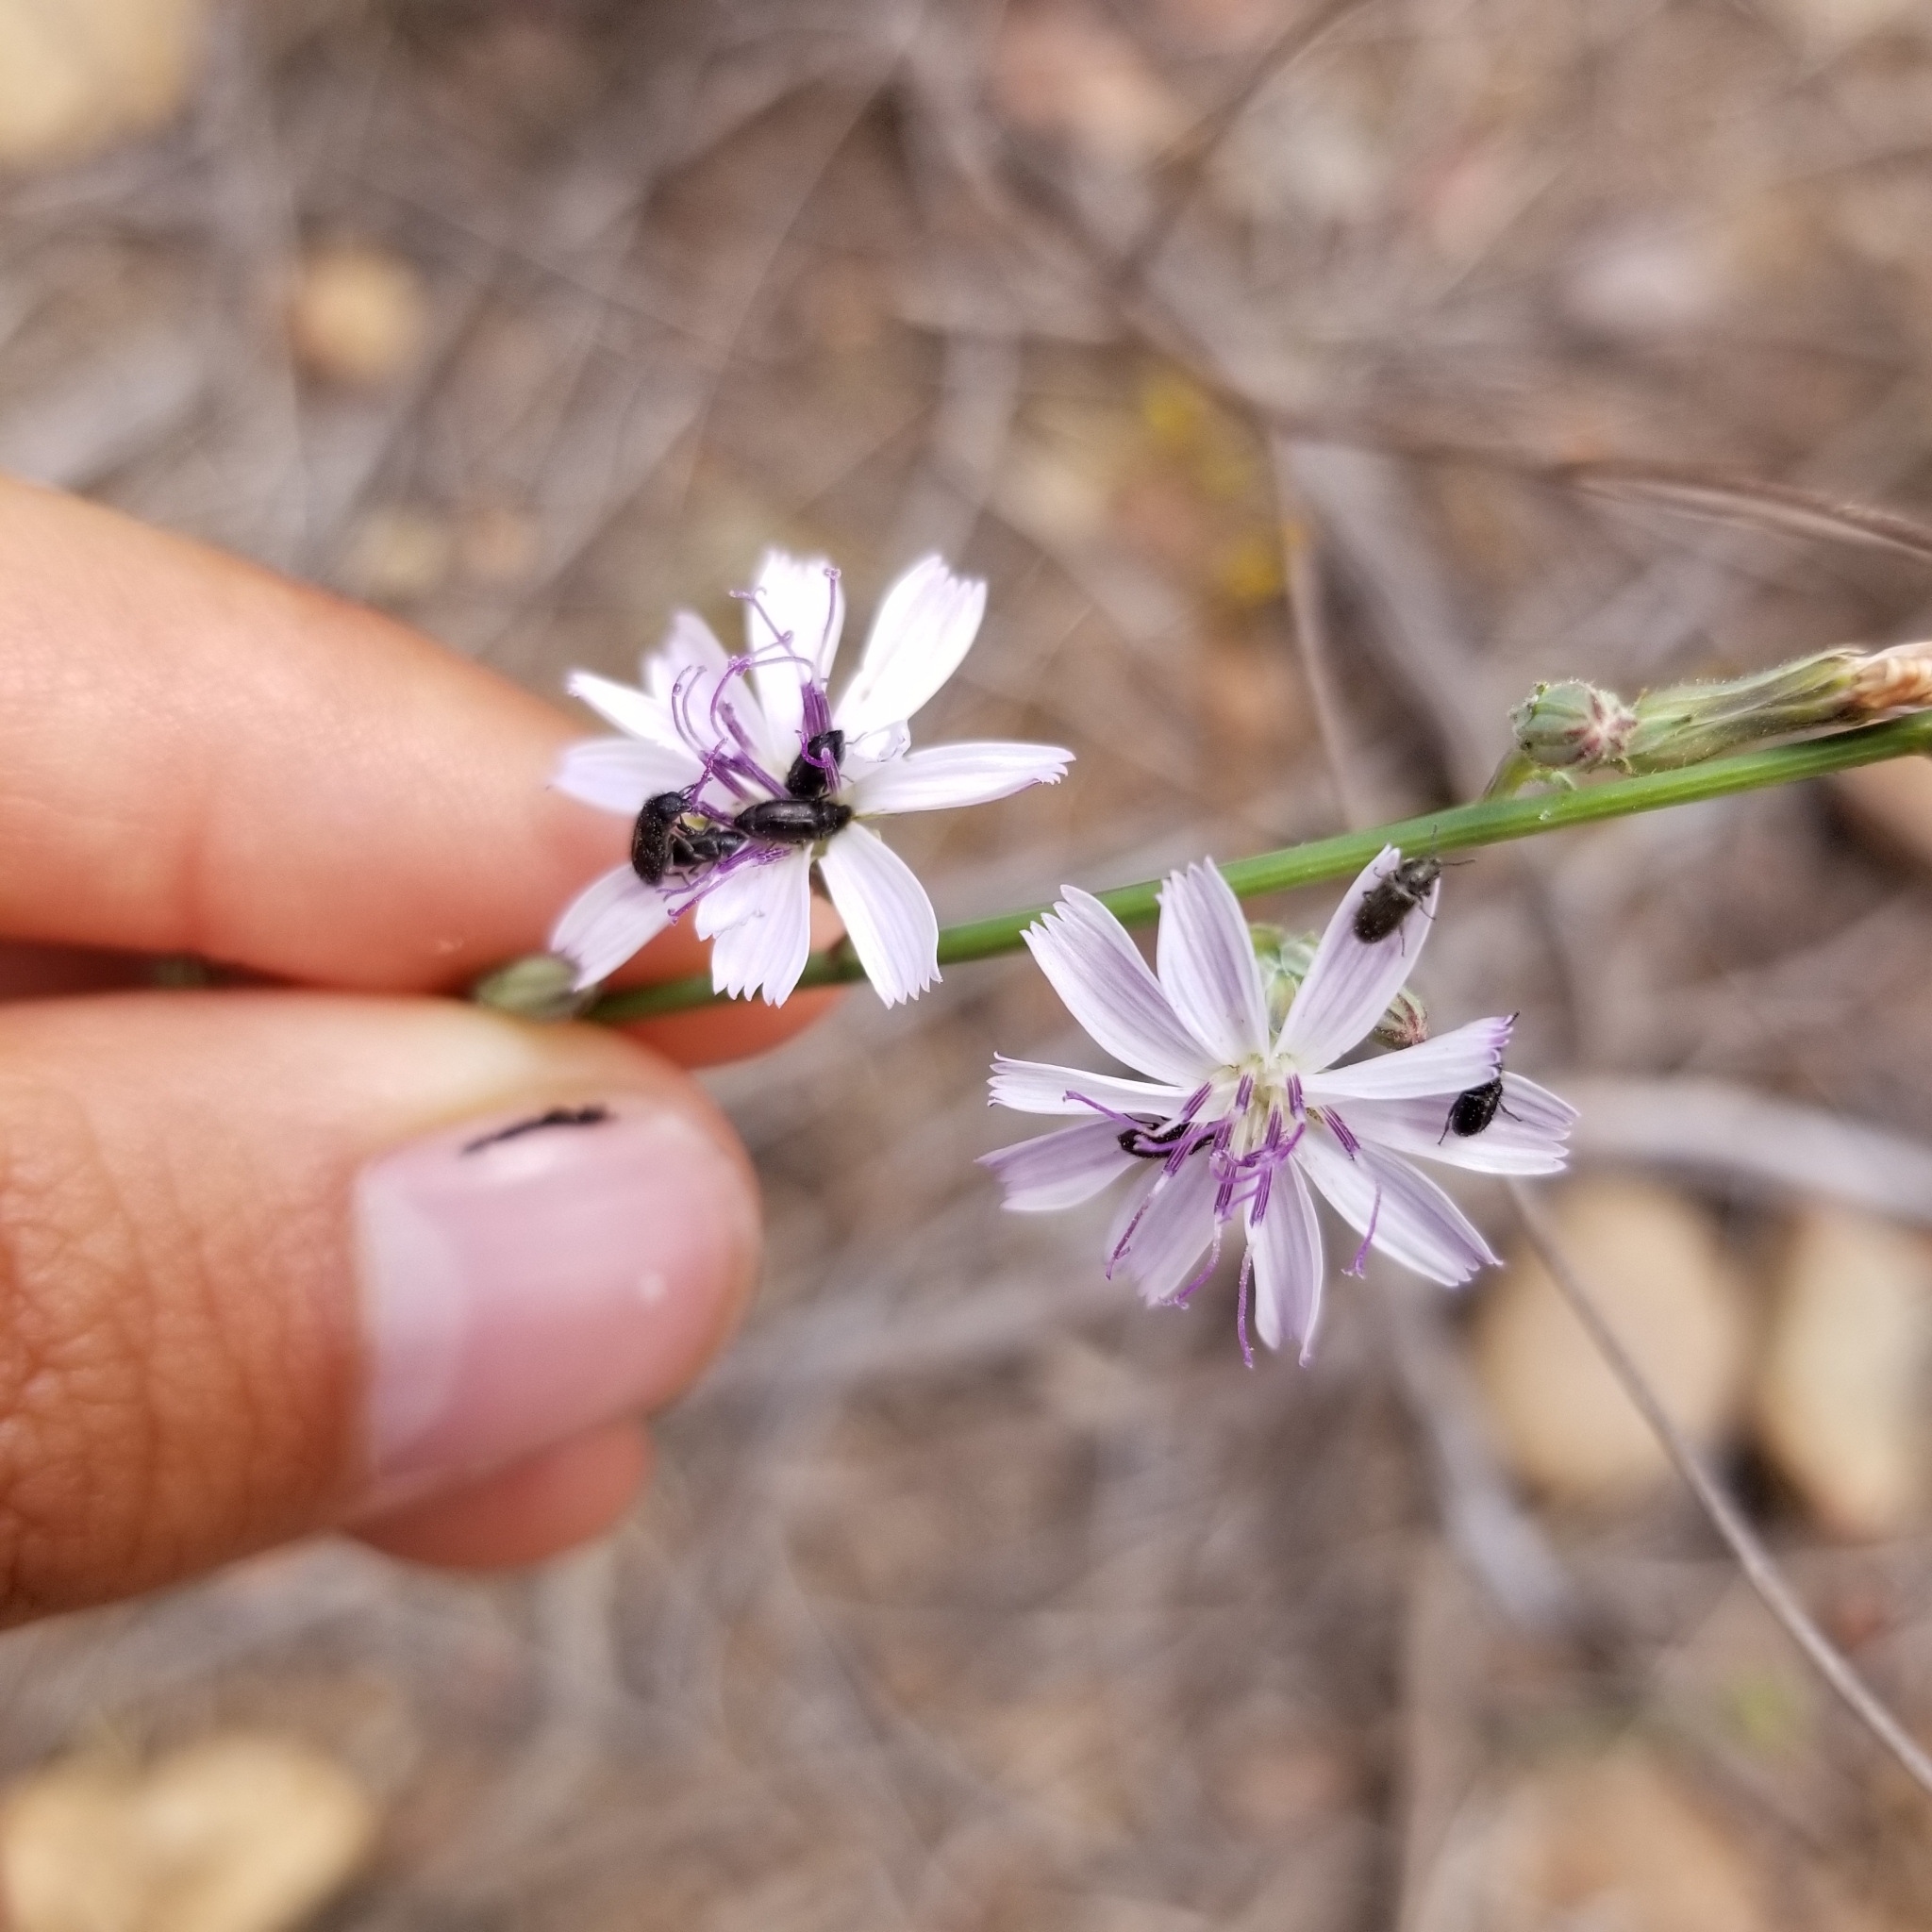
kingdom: Plantae
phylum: Tracheophyta
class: Magnoliopsida
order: Asterales
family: Asteraceae
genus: Stephanomeria
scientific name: Stephanomeria diegensis
